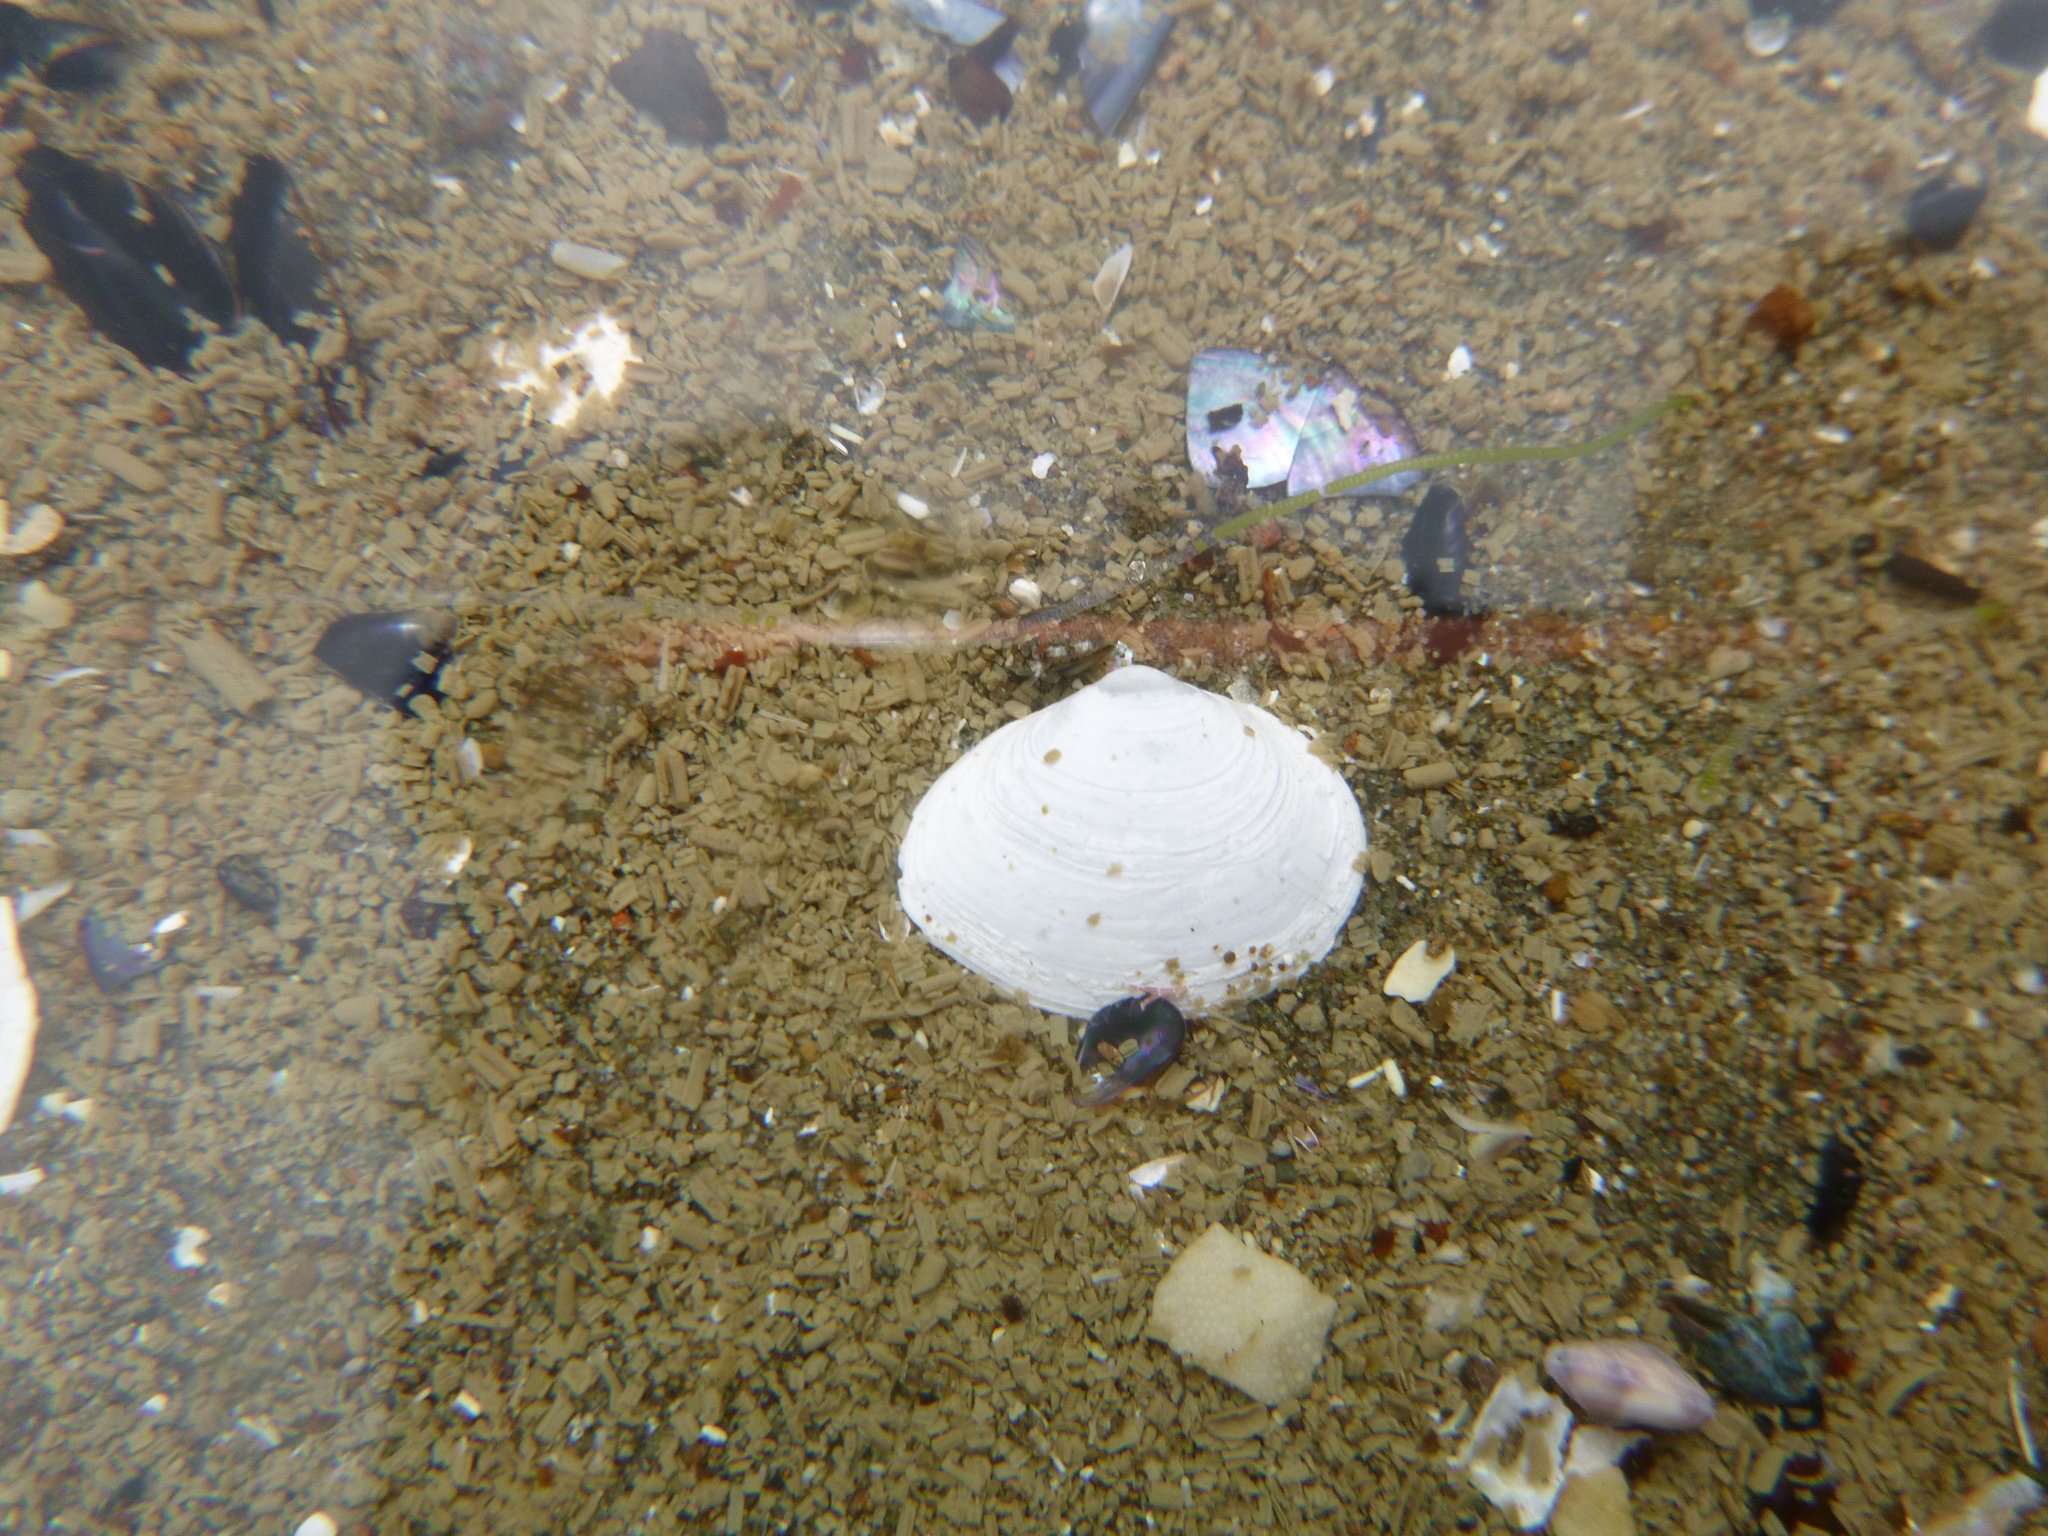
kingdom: Animalia
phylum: Mollusca
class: Bivalvia
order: Cardiida
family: Semelidae
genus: Leptomya
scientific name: Leptomya retiaria
